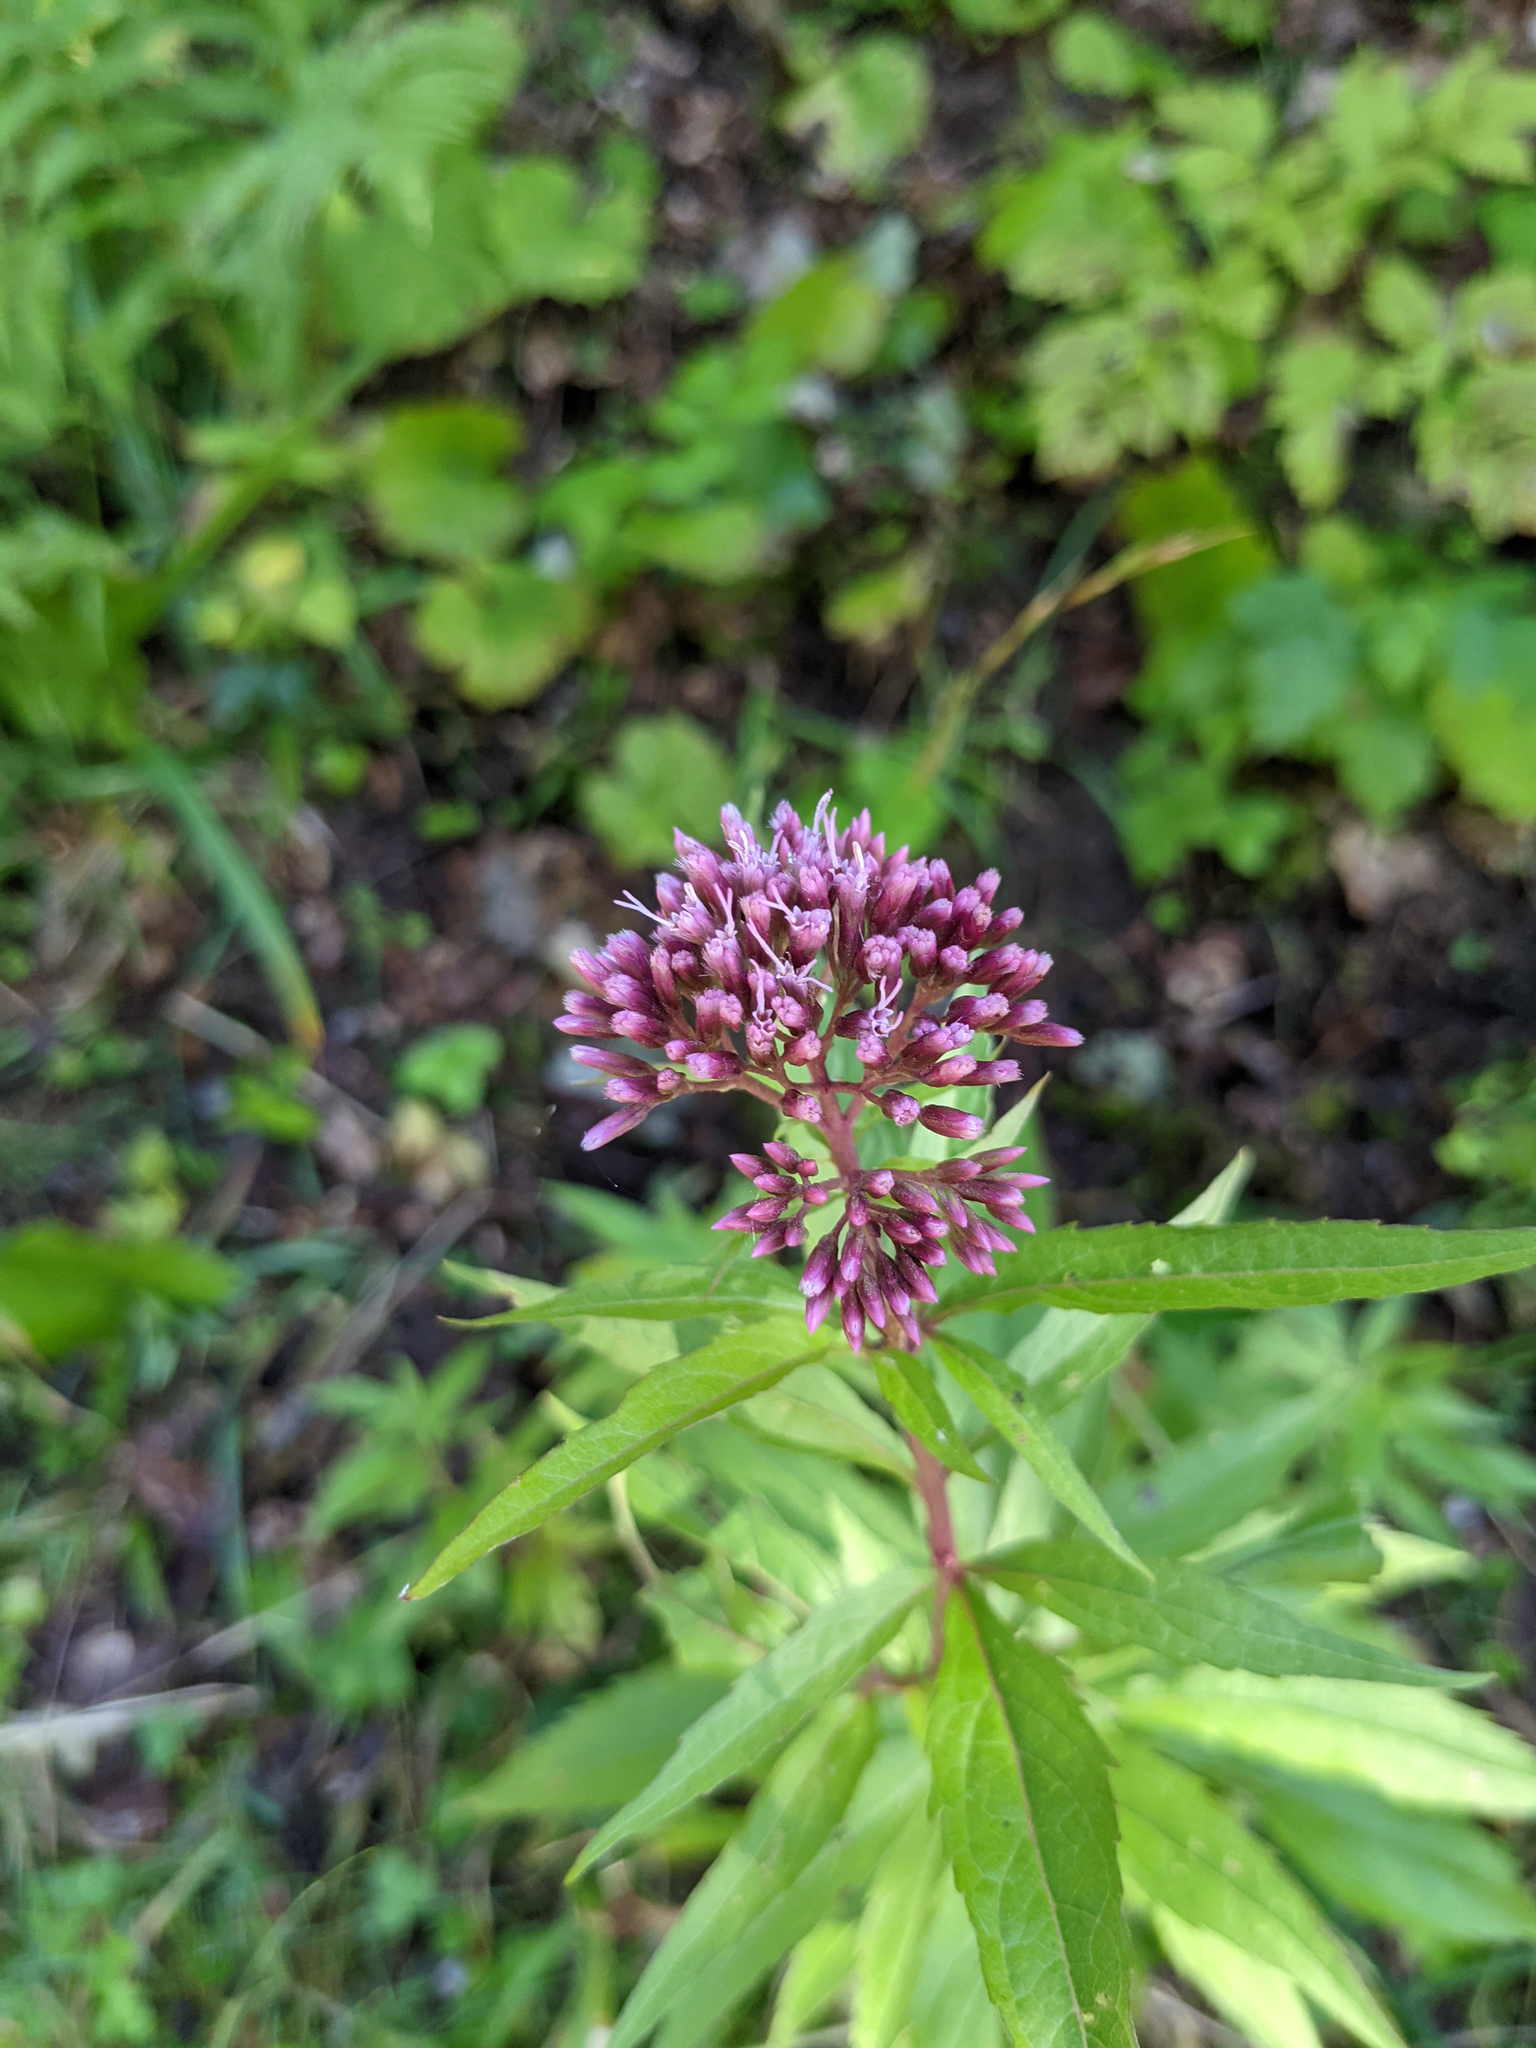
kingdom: Plantae
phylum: Tracheophyta
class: Magnoliopsida
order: Asterales
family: Asteraceae
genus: Eupatorium
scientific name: Eupatorium cannabinum
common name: Hemp-agrimony
